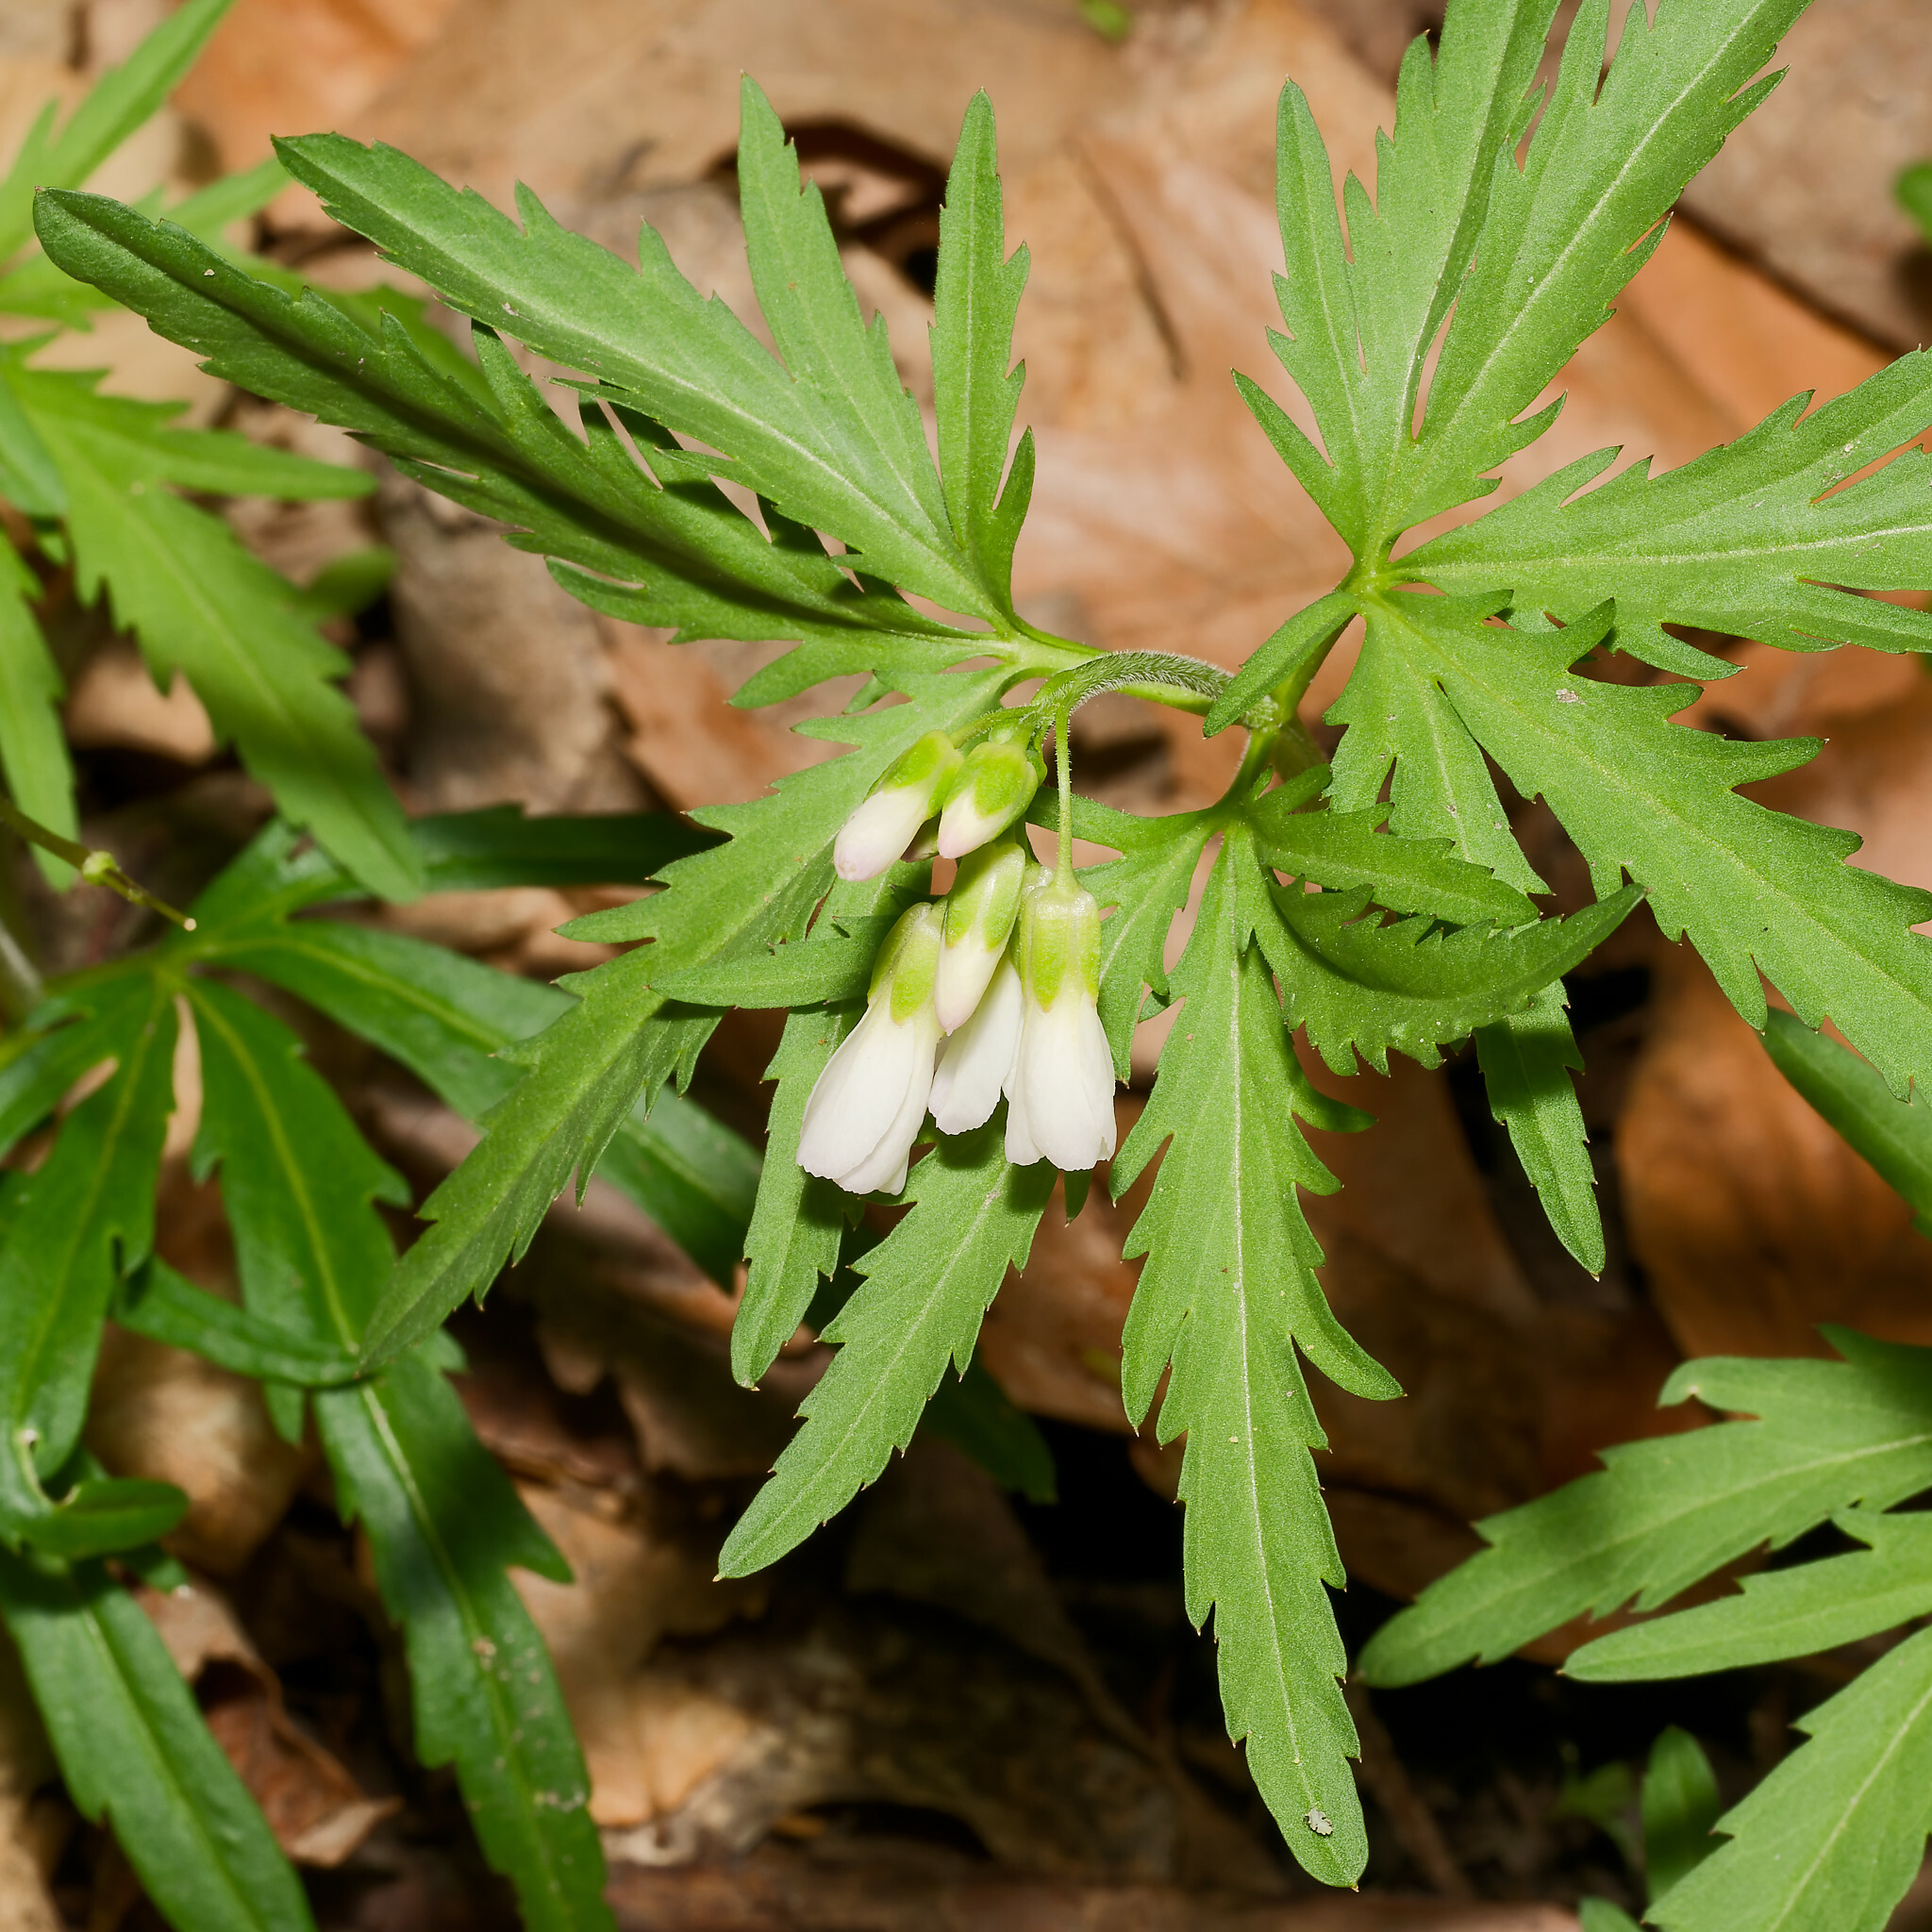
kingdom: Plantae
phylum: Tracheophyta
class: Magnoliopsida
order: Brassicales
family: Brassicaceae
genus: Cardamine
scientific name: Cardamine concatenata
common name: Cut-leaf toothcup
